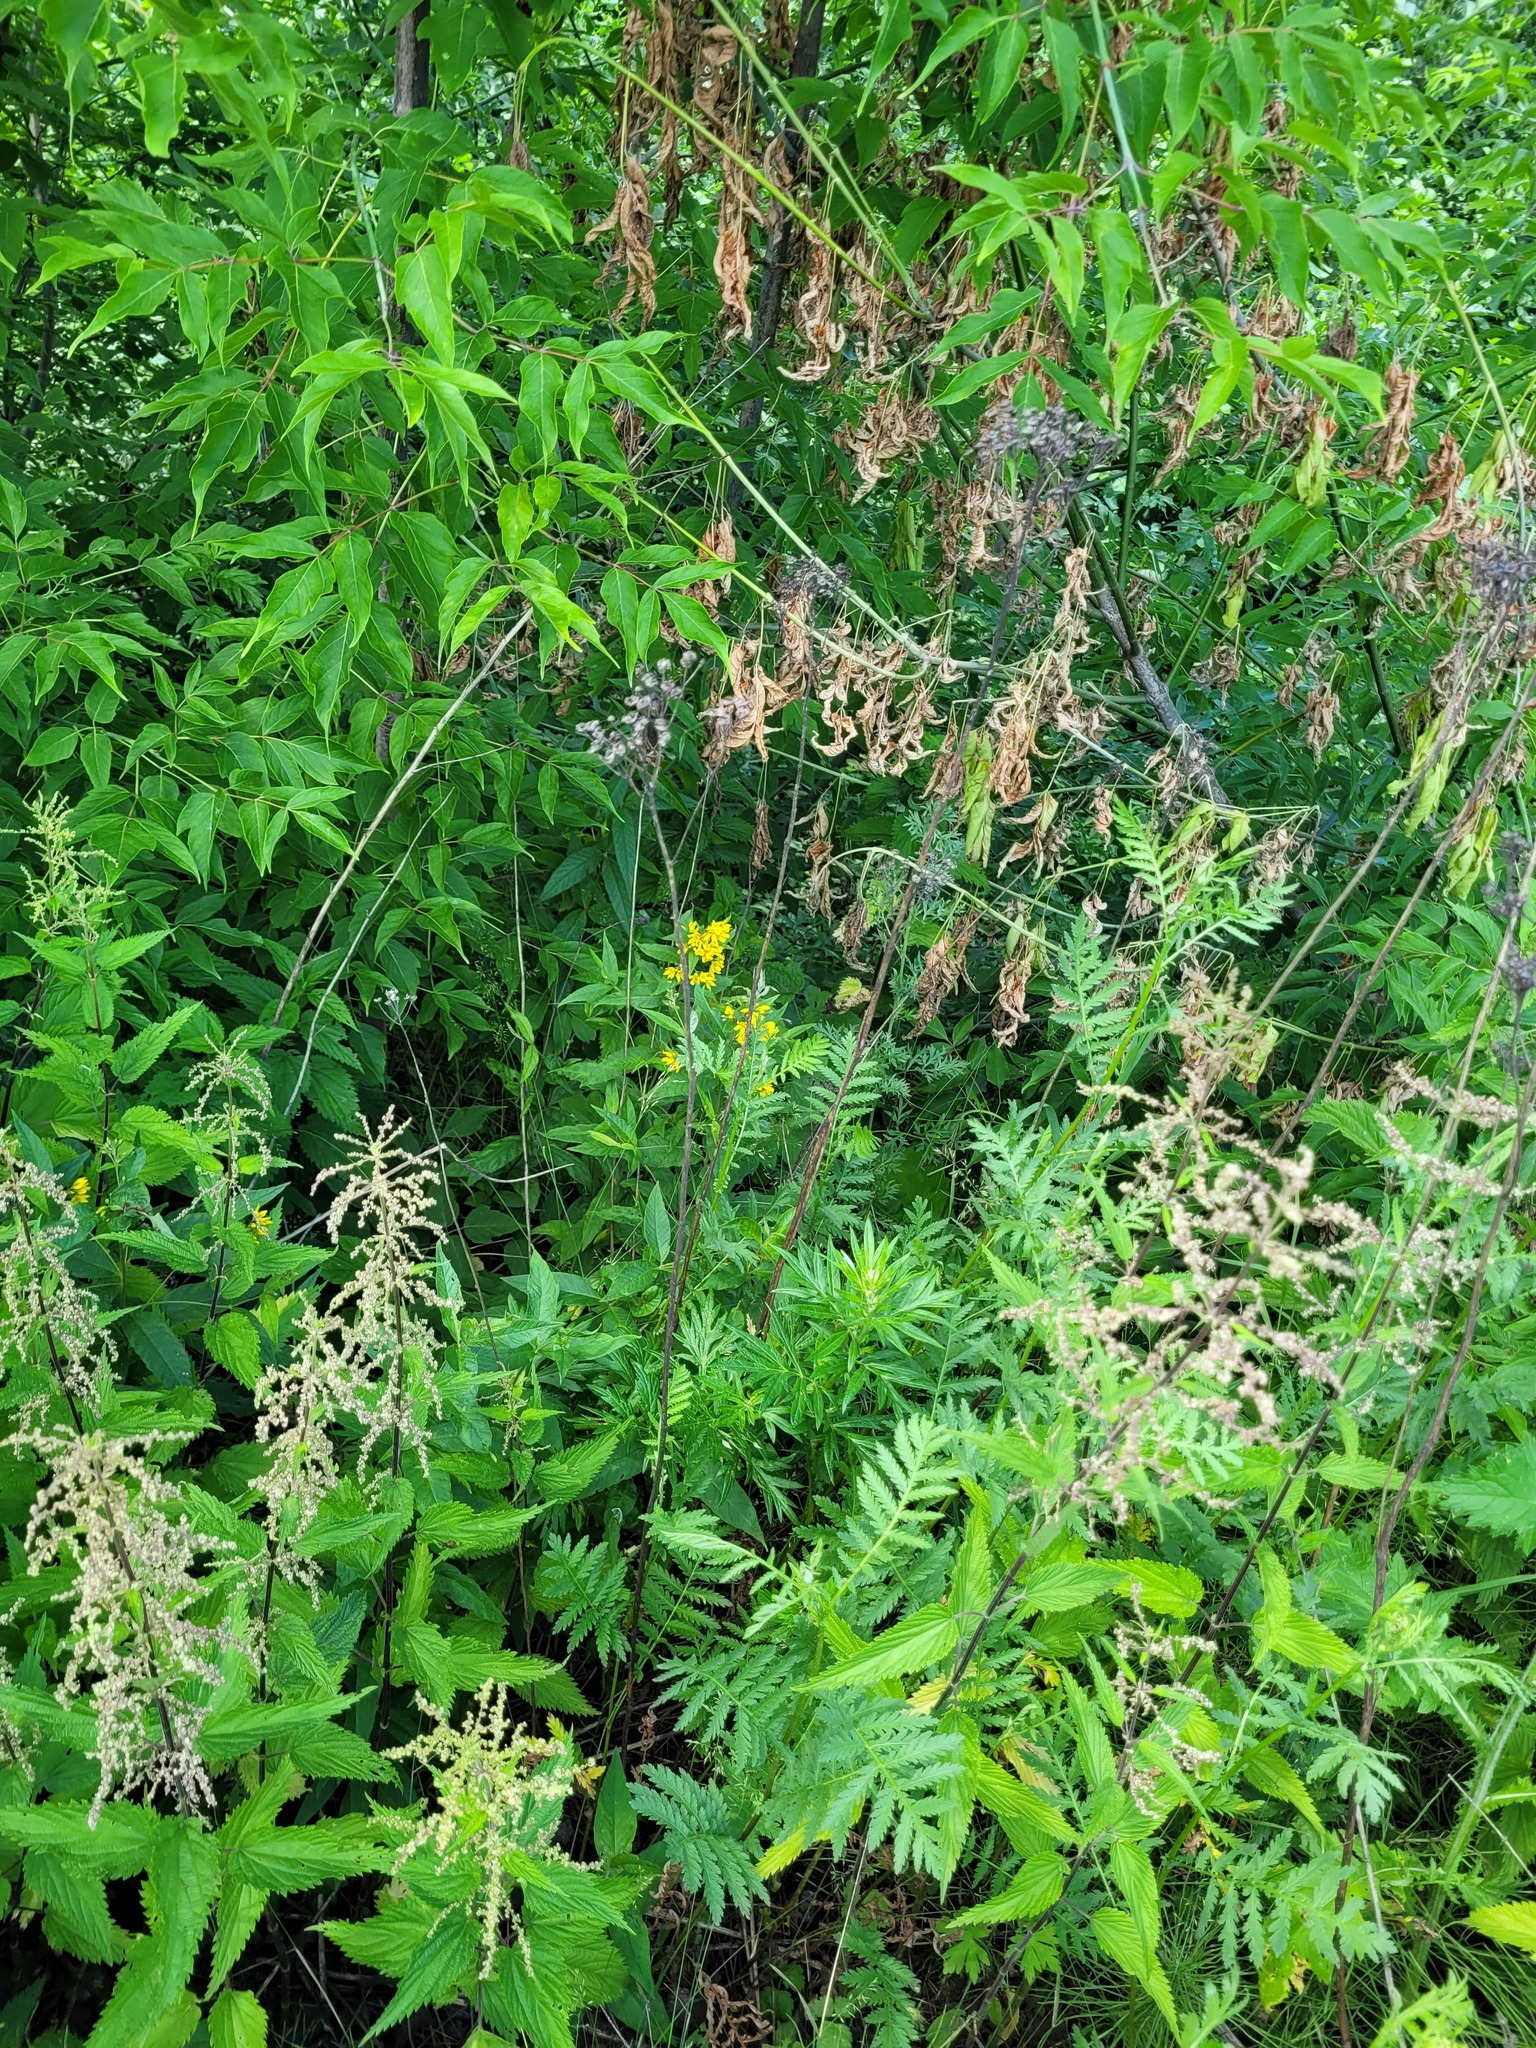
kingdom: Plantae
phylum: Tracheophyta
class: Magnoliopsida
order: Ericales
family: Primulaceae
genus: Lysimachia
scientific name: Lysimachia vulgaris
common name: Yellow loosestrife
